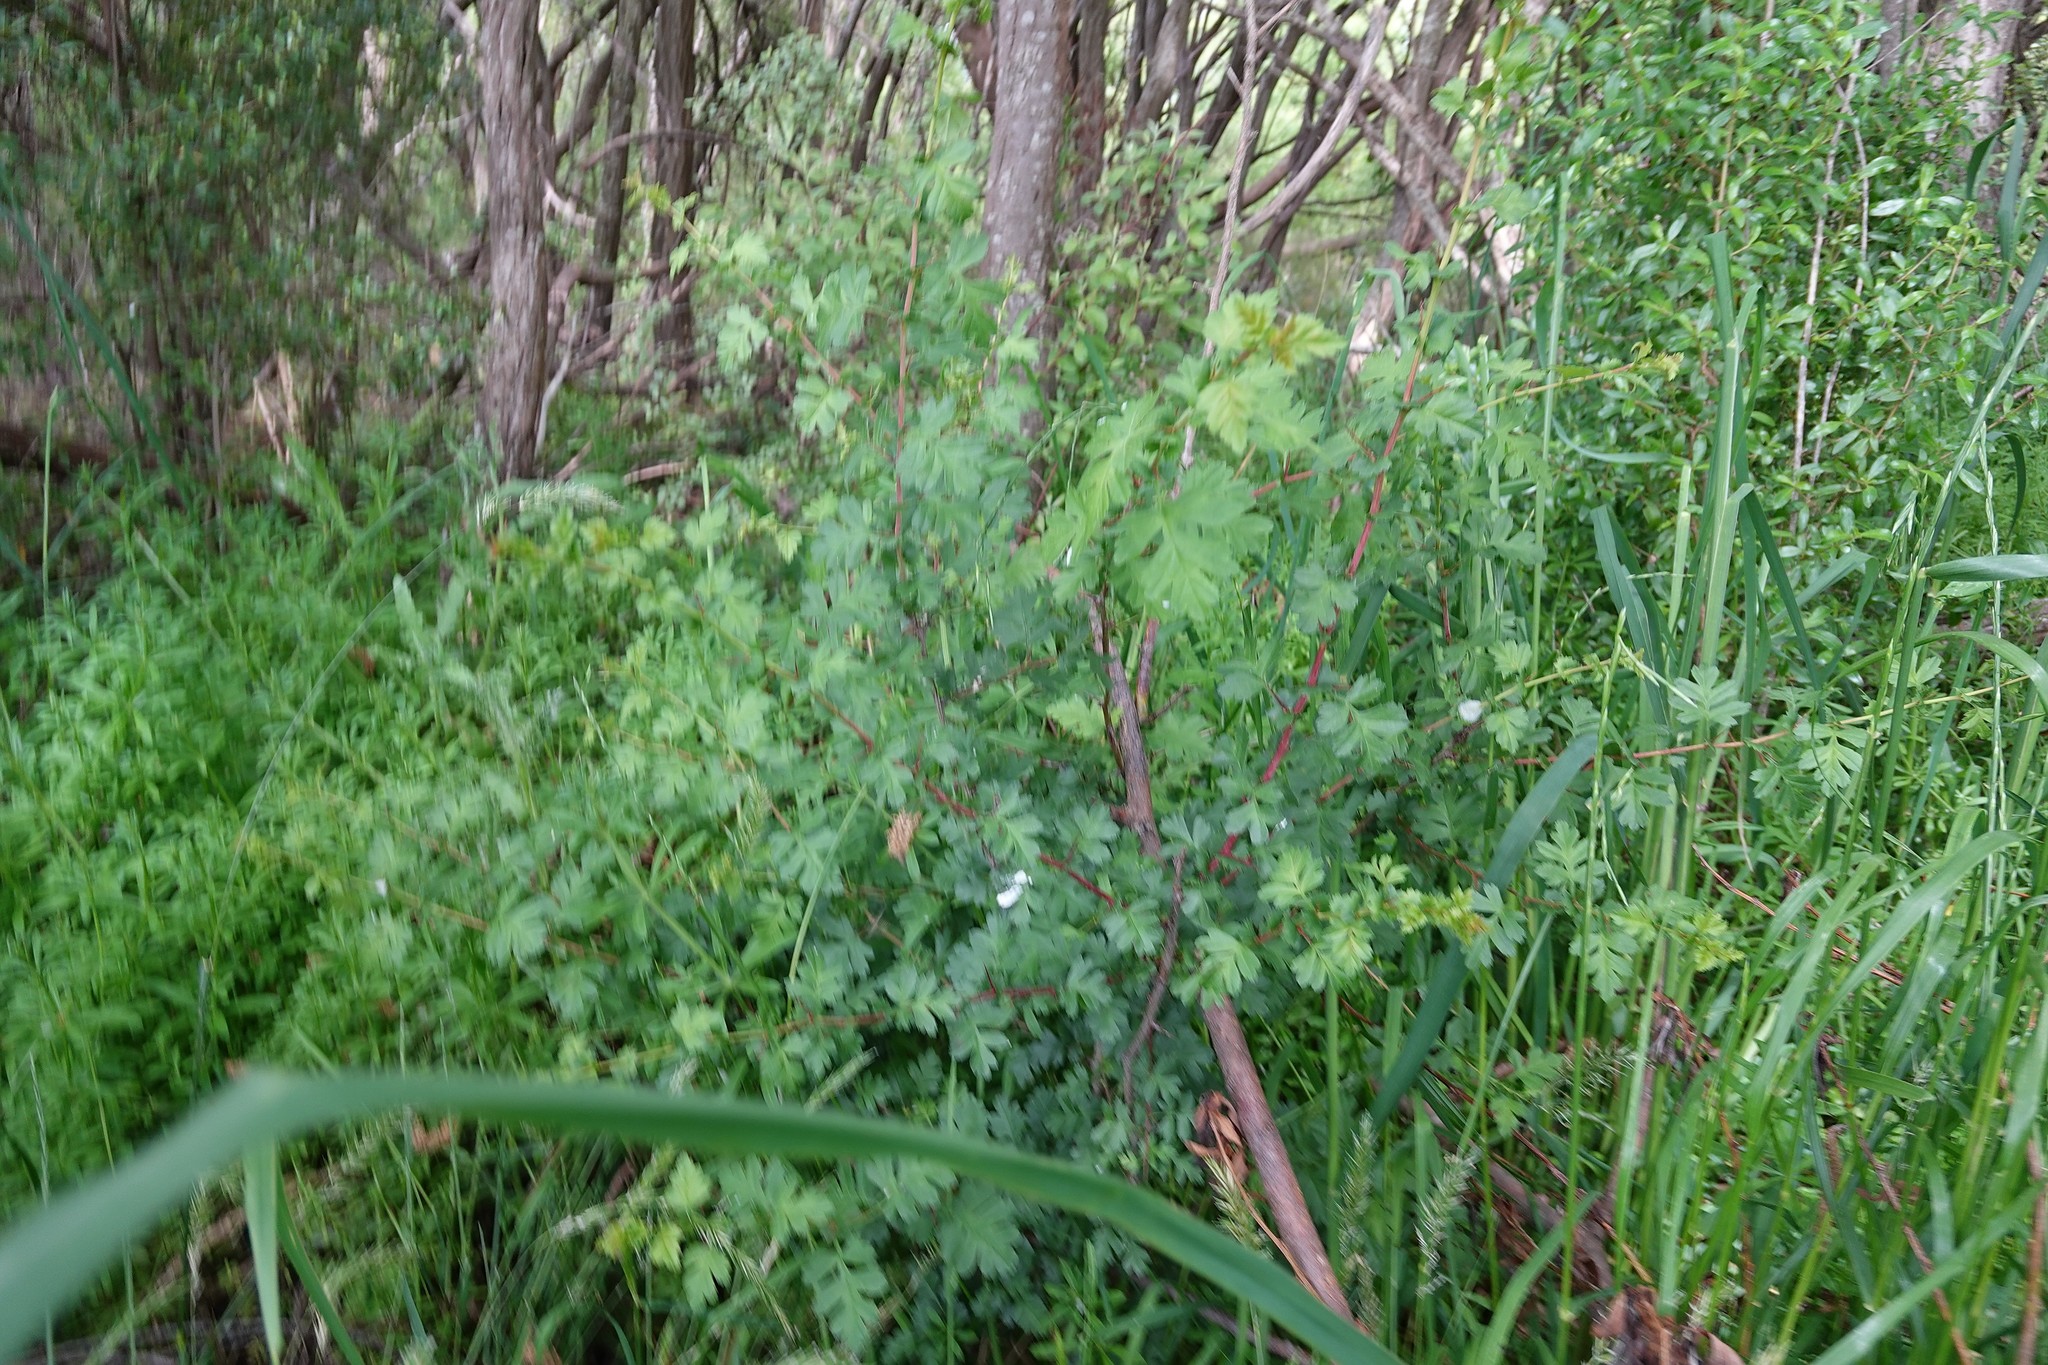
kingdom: Plantae
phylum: Tracheophyta
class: Magnoliopsida
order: Rosales
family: Rosaceae
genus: Crataegus
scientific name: Crataegus monogyna
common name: Hawthorn
